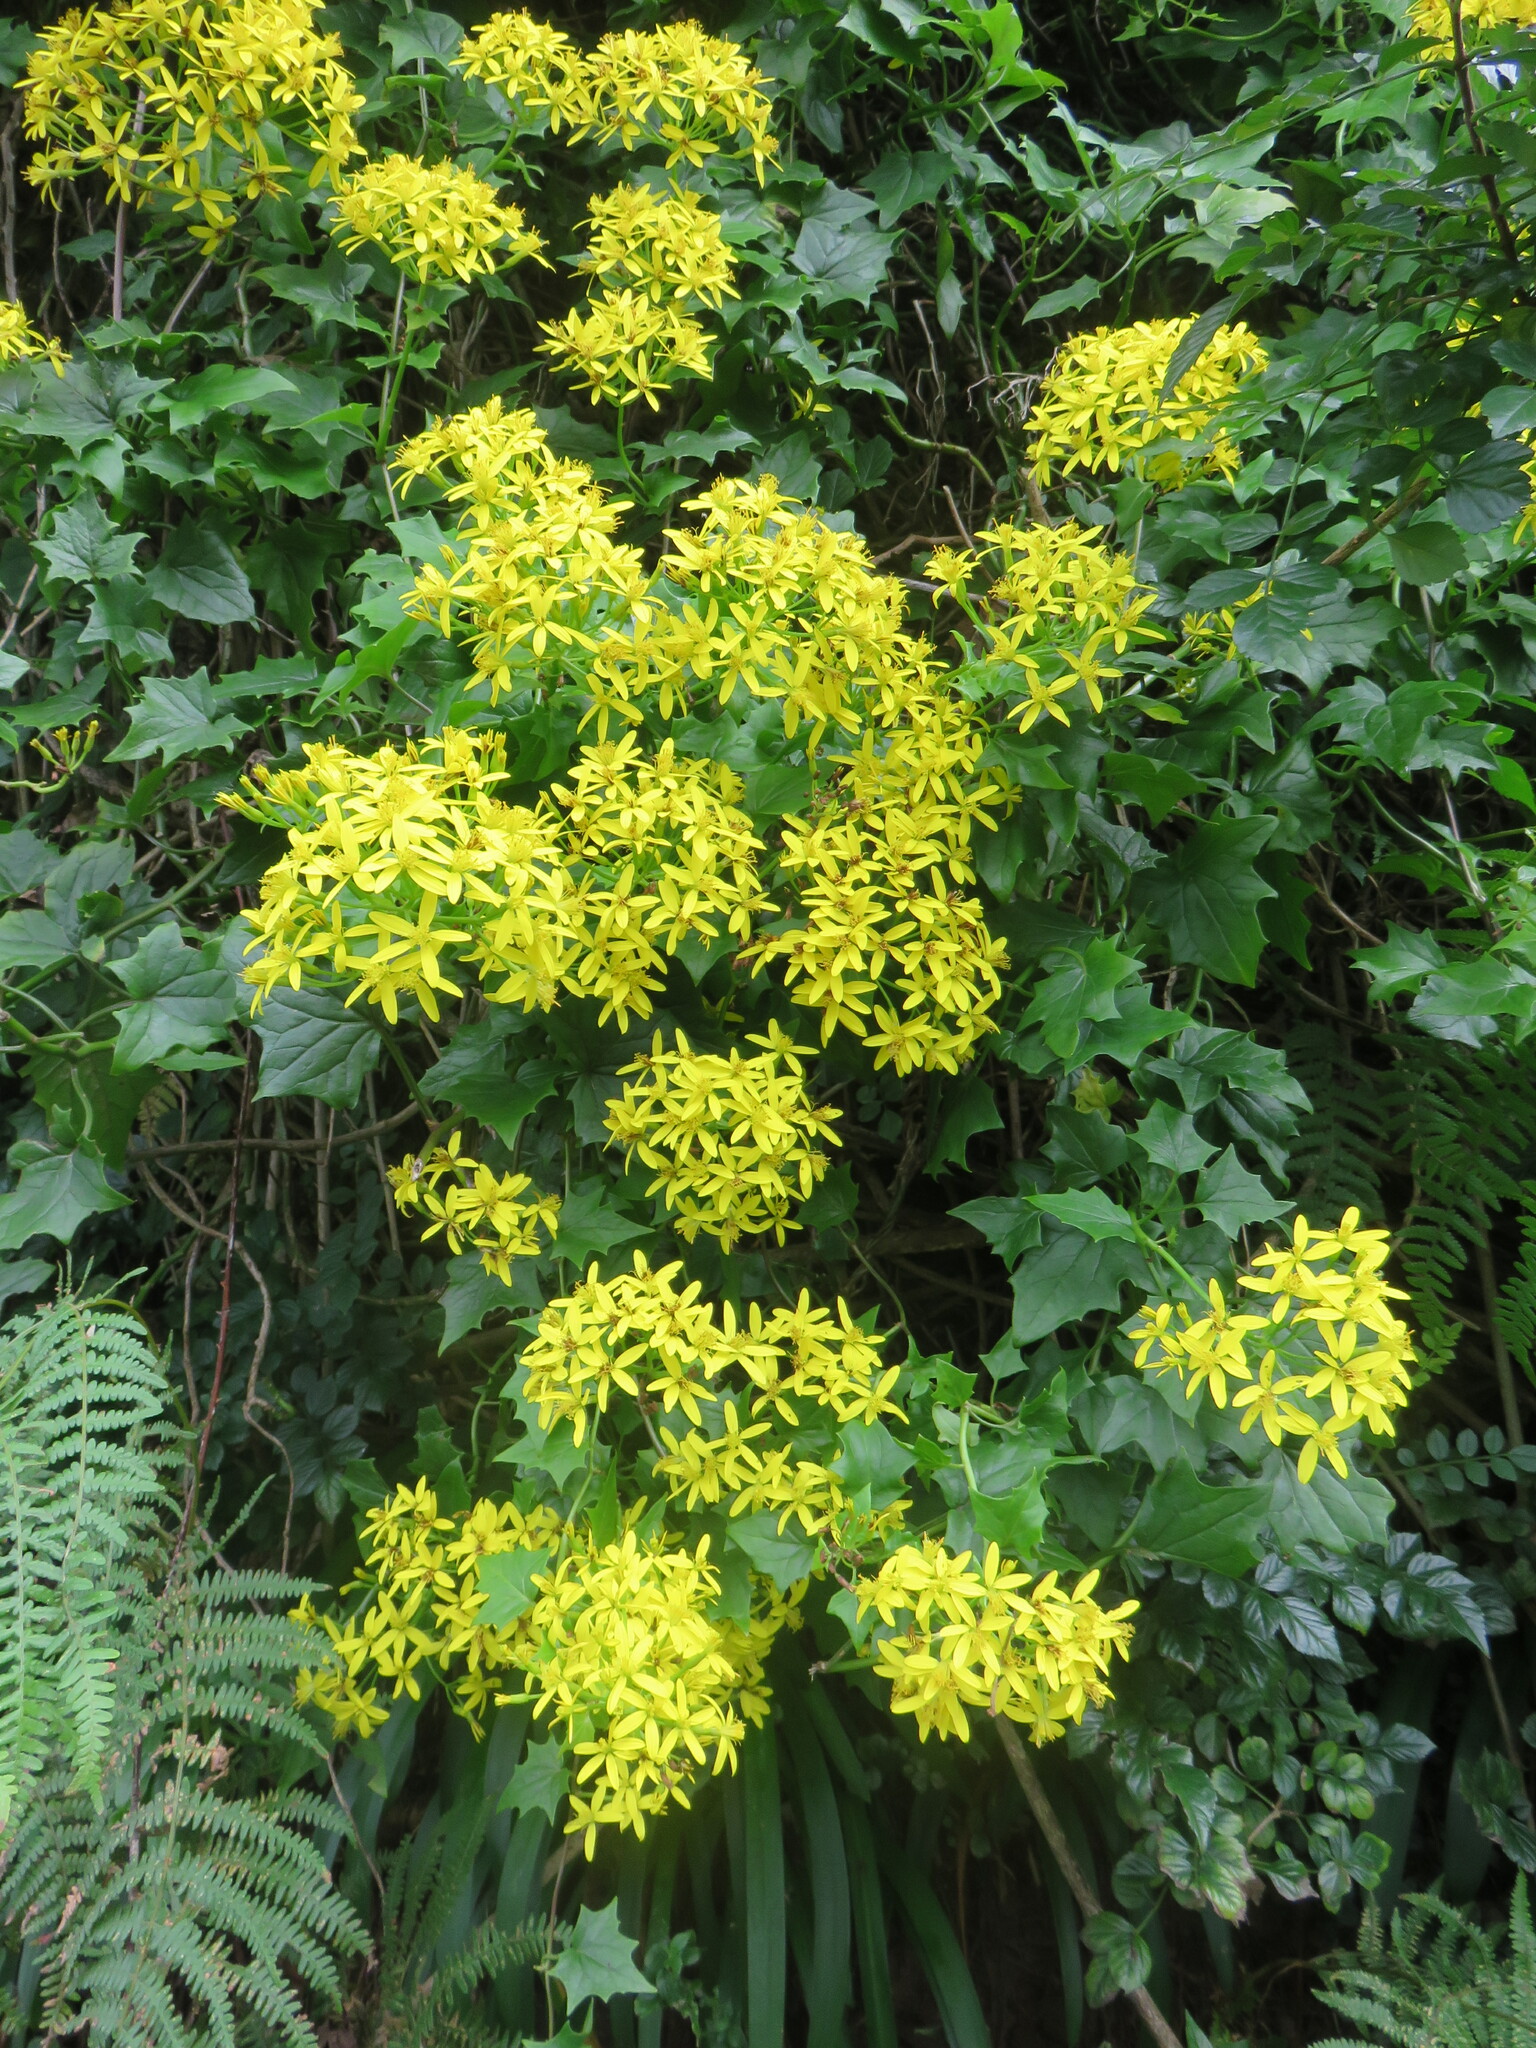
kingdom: Plantae
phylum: Tracheophyta
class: Magnoliopsida
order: Asterales
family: Asteraceae
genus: Delairea
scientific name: Delairea odorata
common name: Cape-ivy
